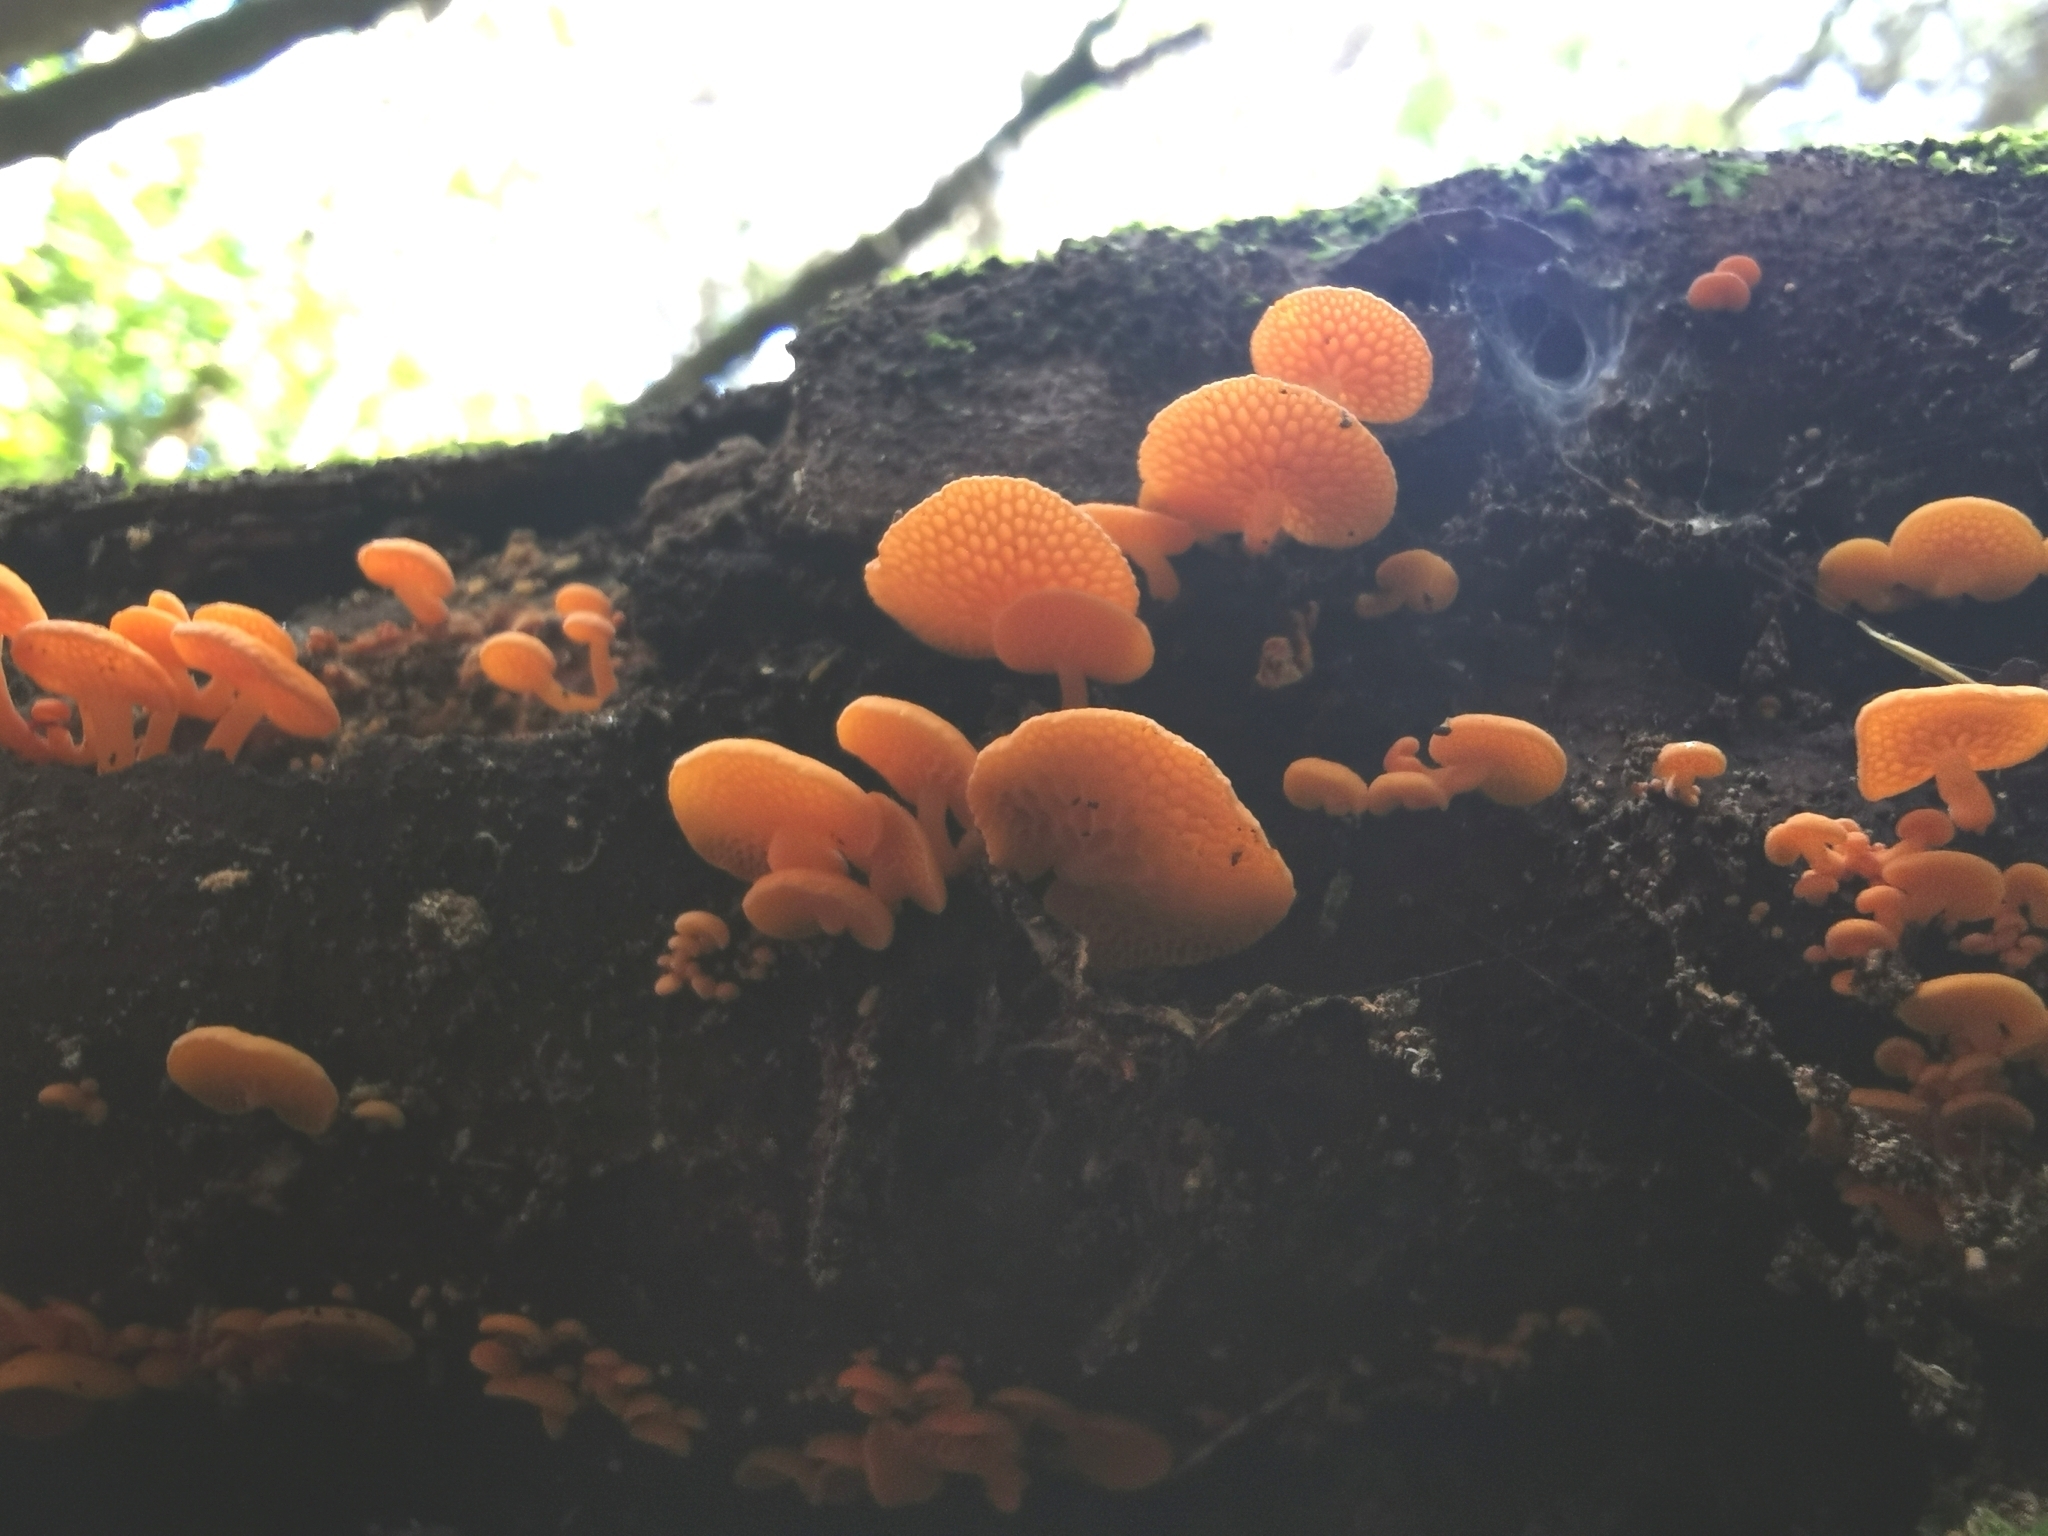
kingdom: Fungi
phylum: Basidiomycota
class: Agaricomycetes
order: Agaricales
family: Mycenaceae
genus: Favolaschia
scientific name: Favolaschia claudopus
